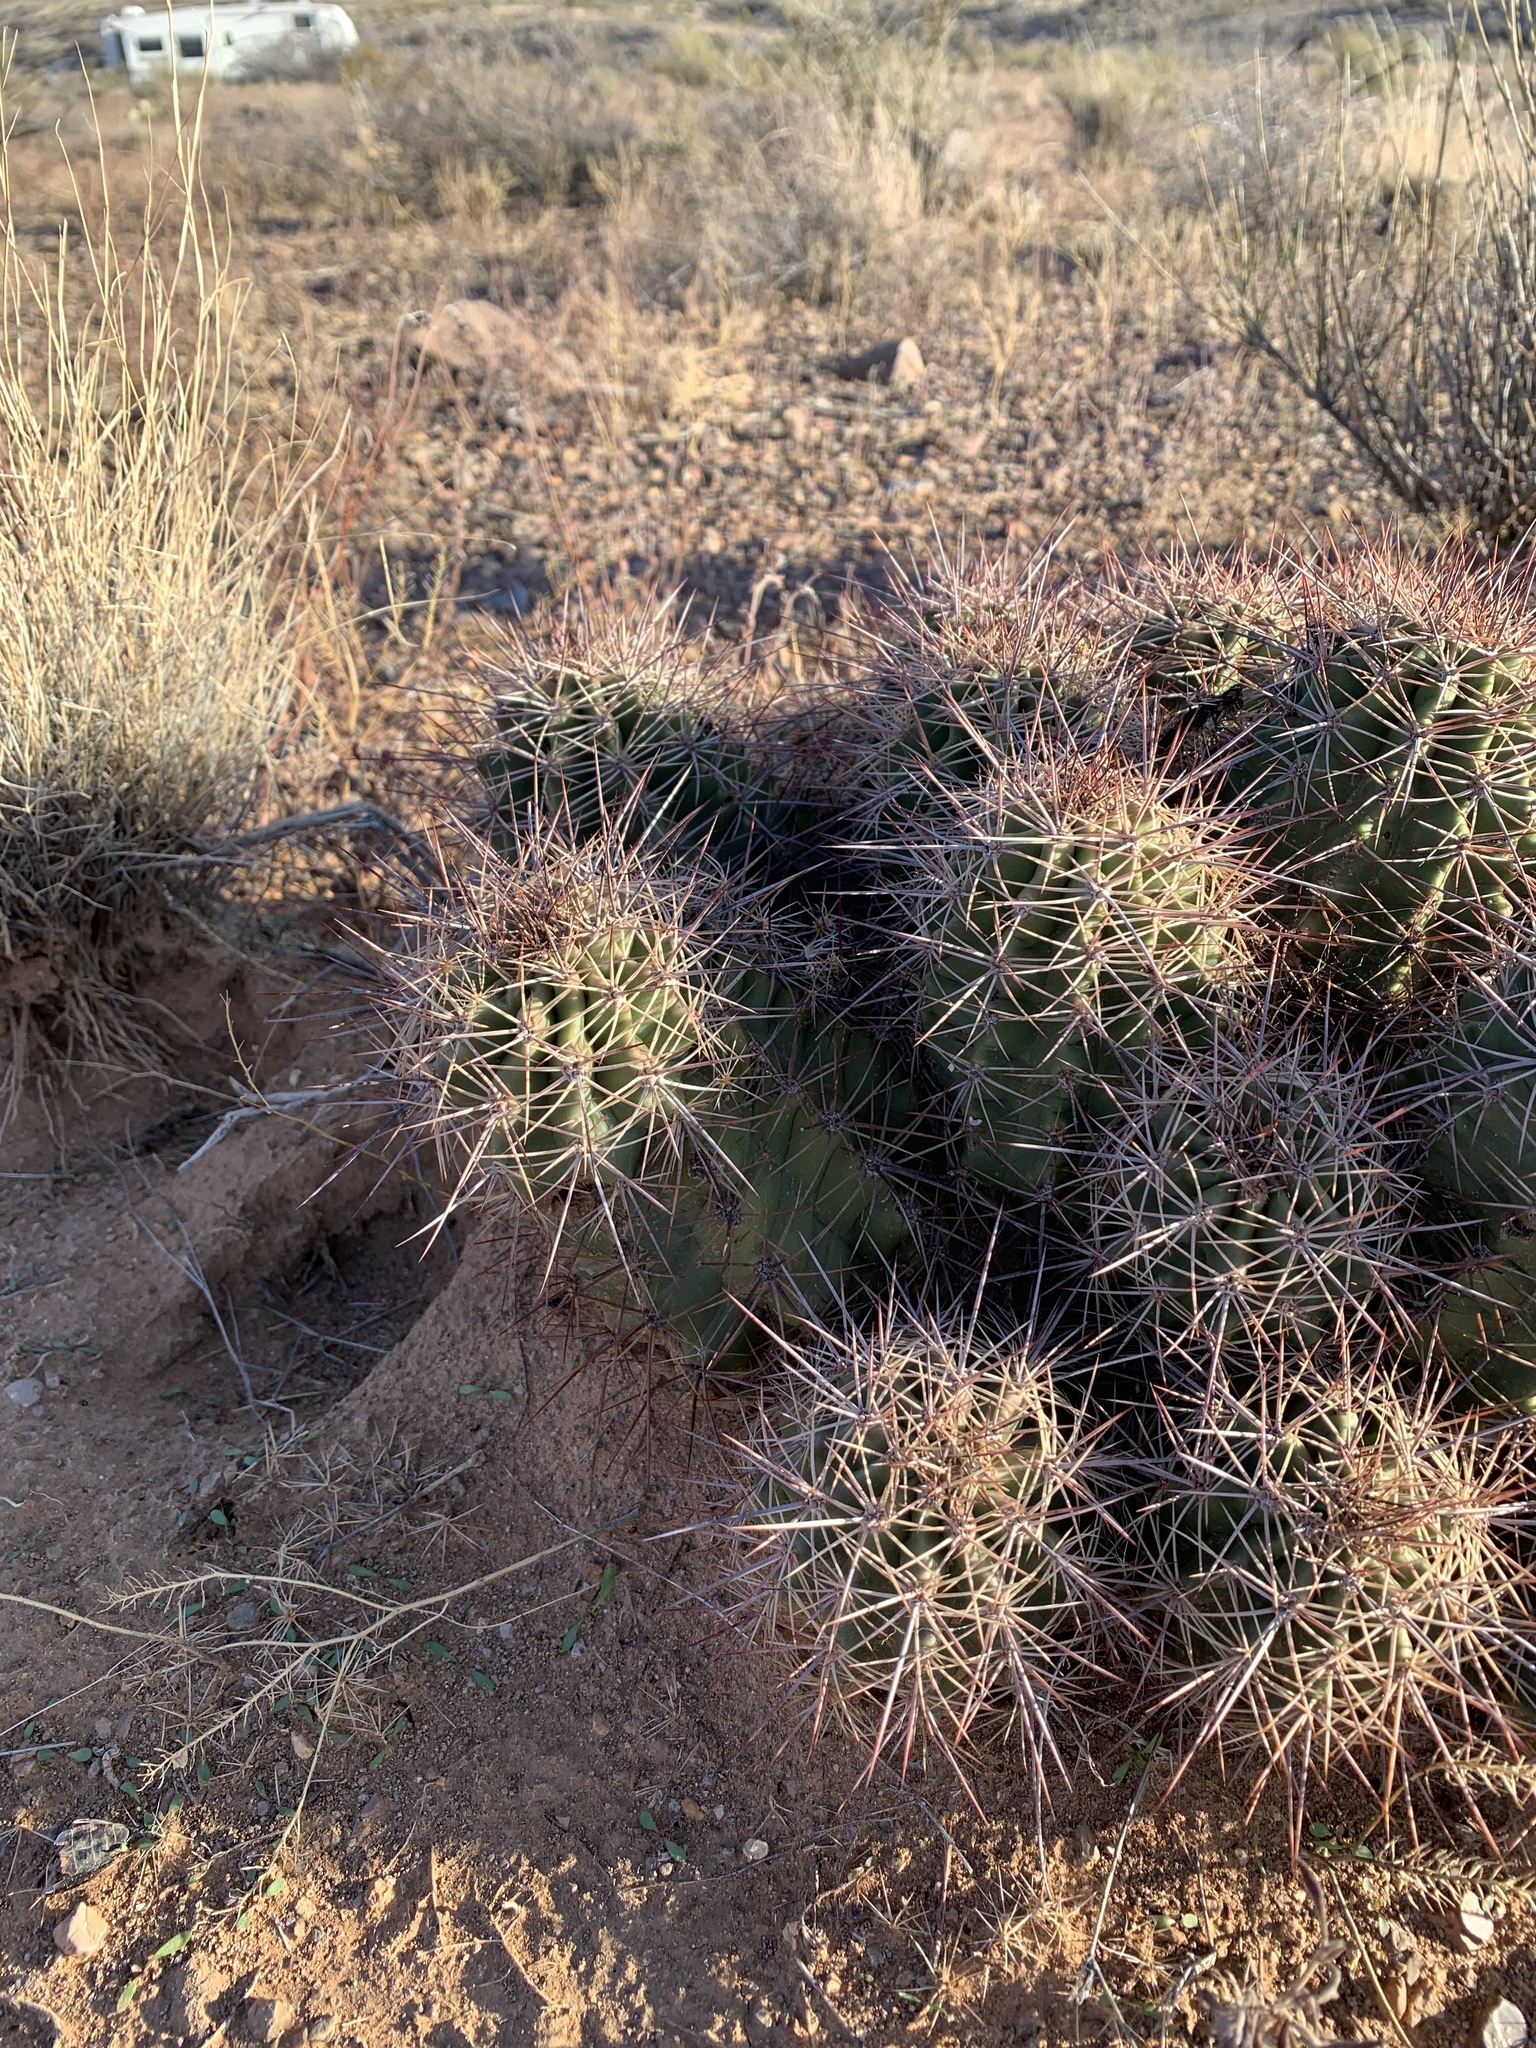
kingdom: Plantae
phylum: Tracheophyta
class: Magnoliopsida
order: Caryophyllales
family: Cactaceae
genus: Echinocereus
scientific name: Echinocereus coccineus
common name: Scarlet hedgehog cactus
